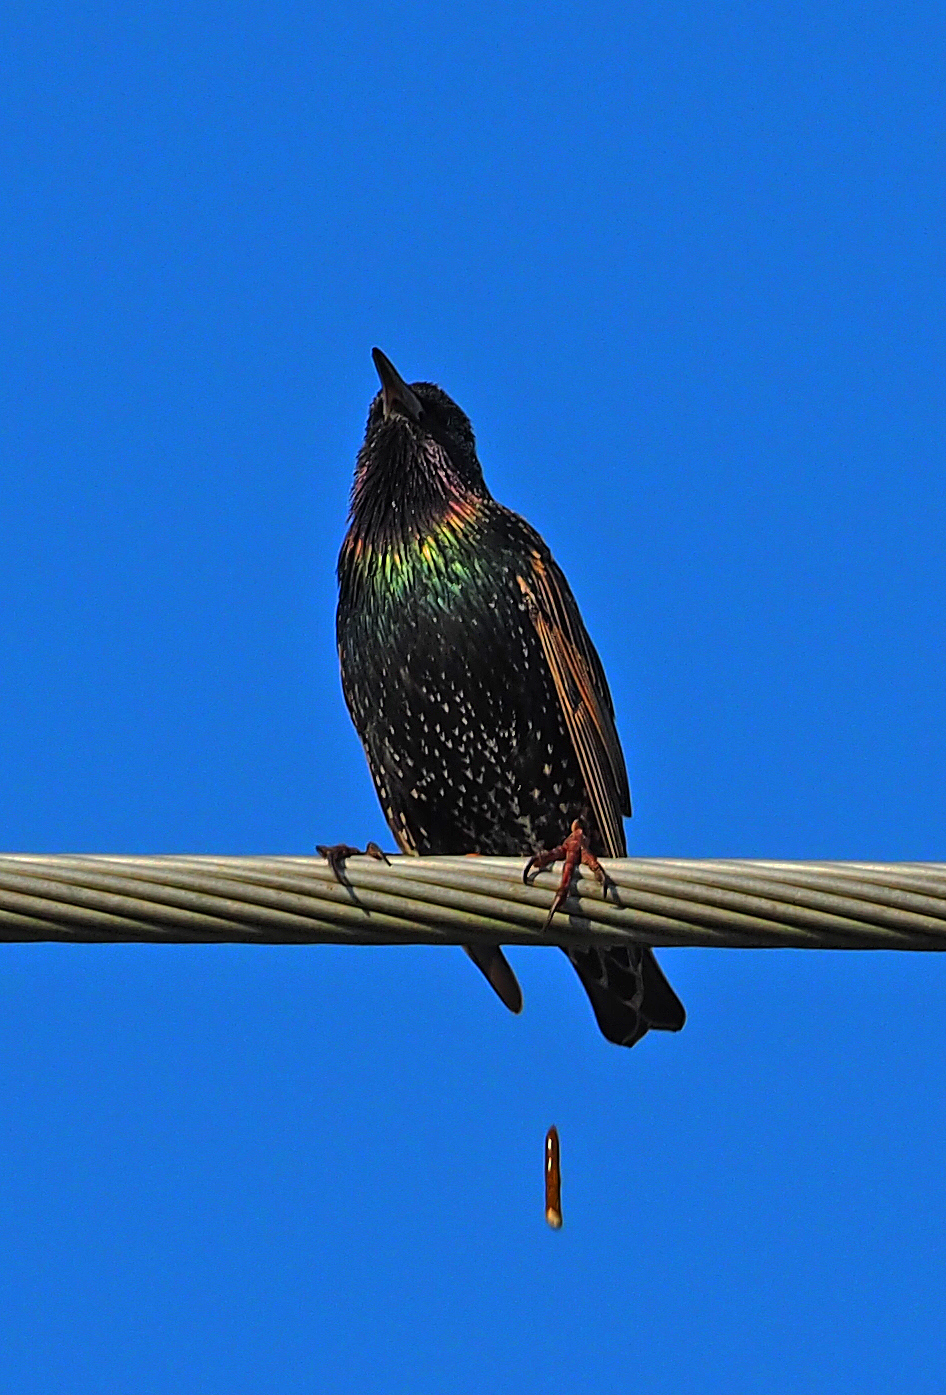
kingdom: Animalia
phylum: Chordata
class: Aves
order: Passeriformes
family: Sturnidae
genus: Sturnus
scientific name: Sturnus vulgaris
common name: Common starling
